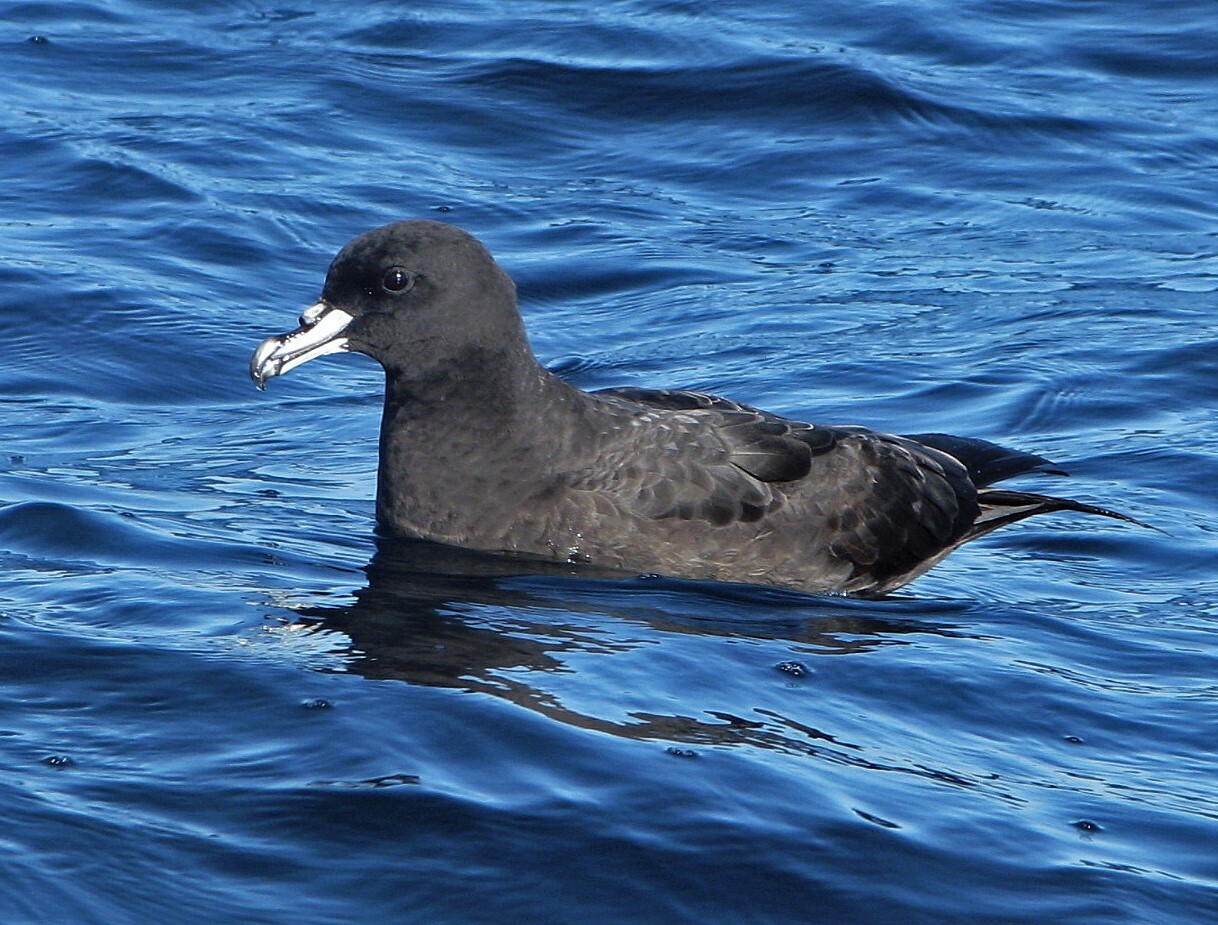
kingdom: Animalia
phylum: Chordata
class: Aves
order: Procellariiformes
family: Procellariidae
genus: Procellaria
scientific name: Procellaria aequinoctialis
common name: White-chinned petrel
